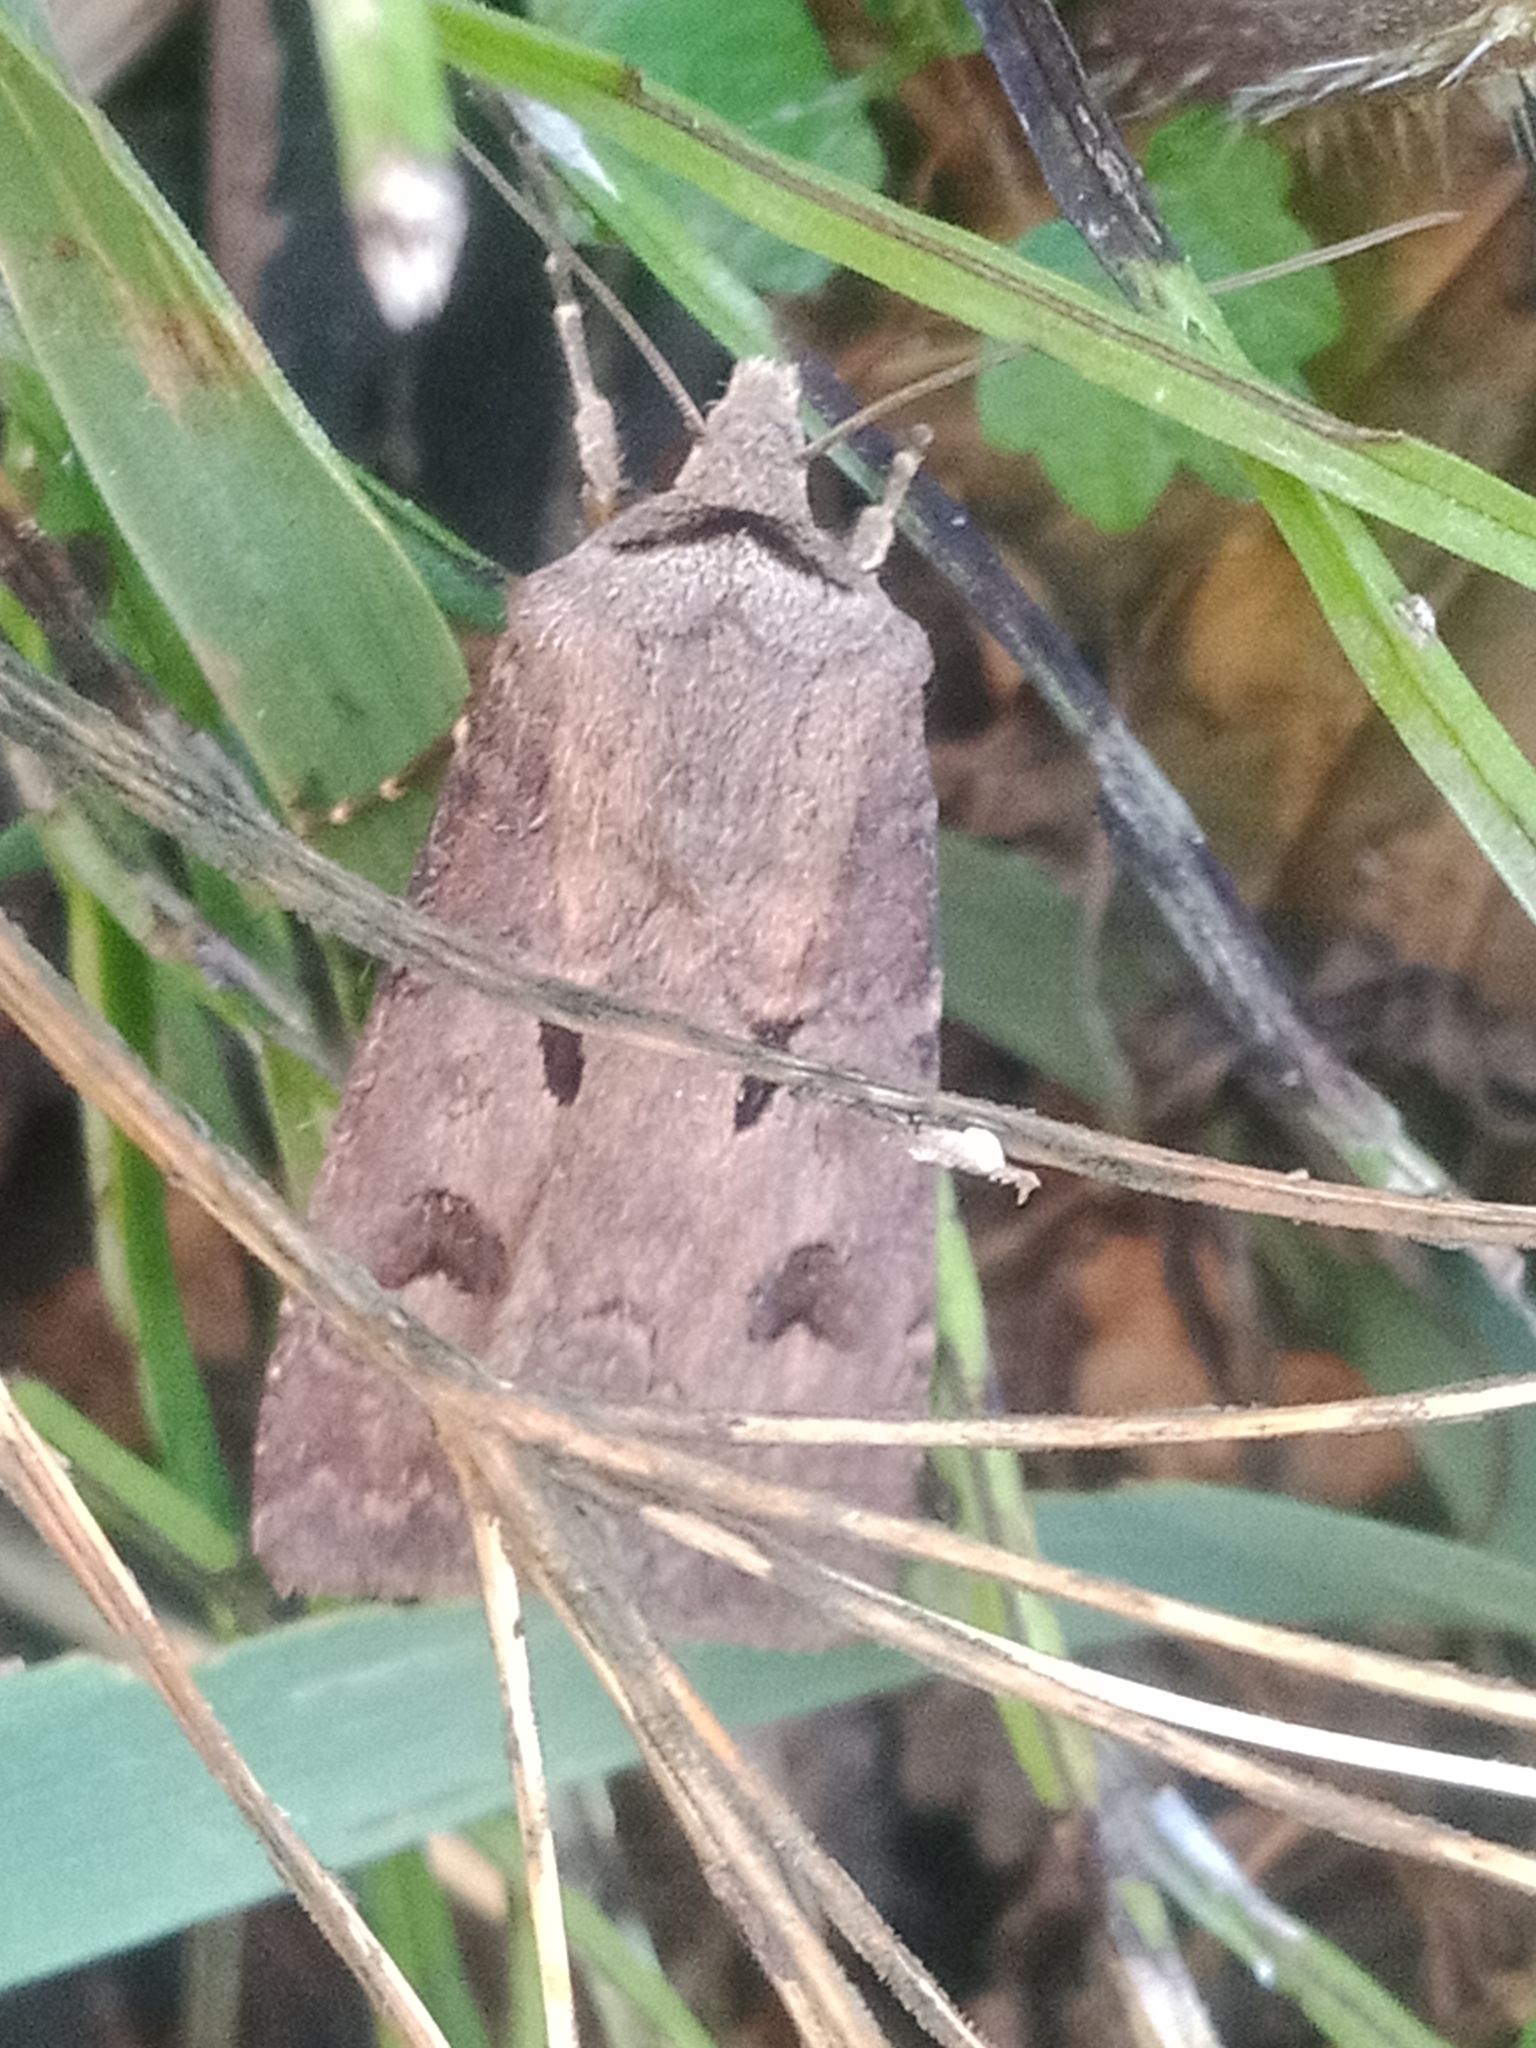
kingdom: Animalia
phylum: Arthropoda
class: Insecta
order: Lepidoptera
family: Noctuidae
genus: Agrotis
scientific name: Agrotis exclamationis
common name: Heart and dart
